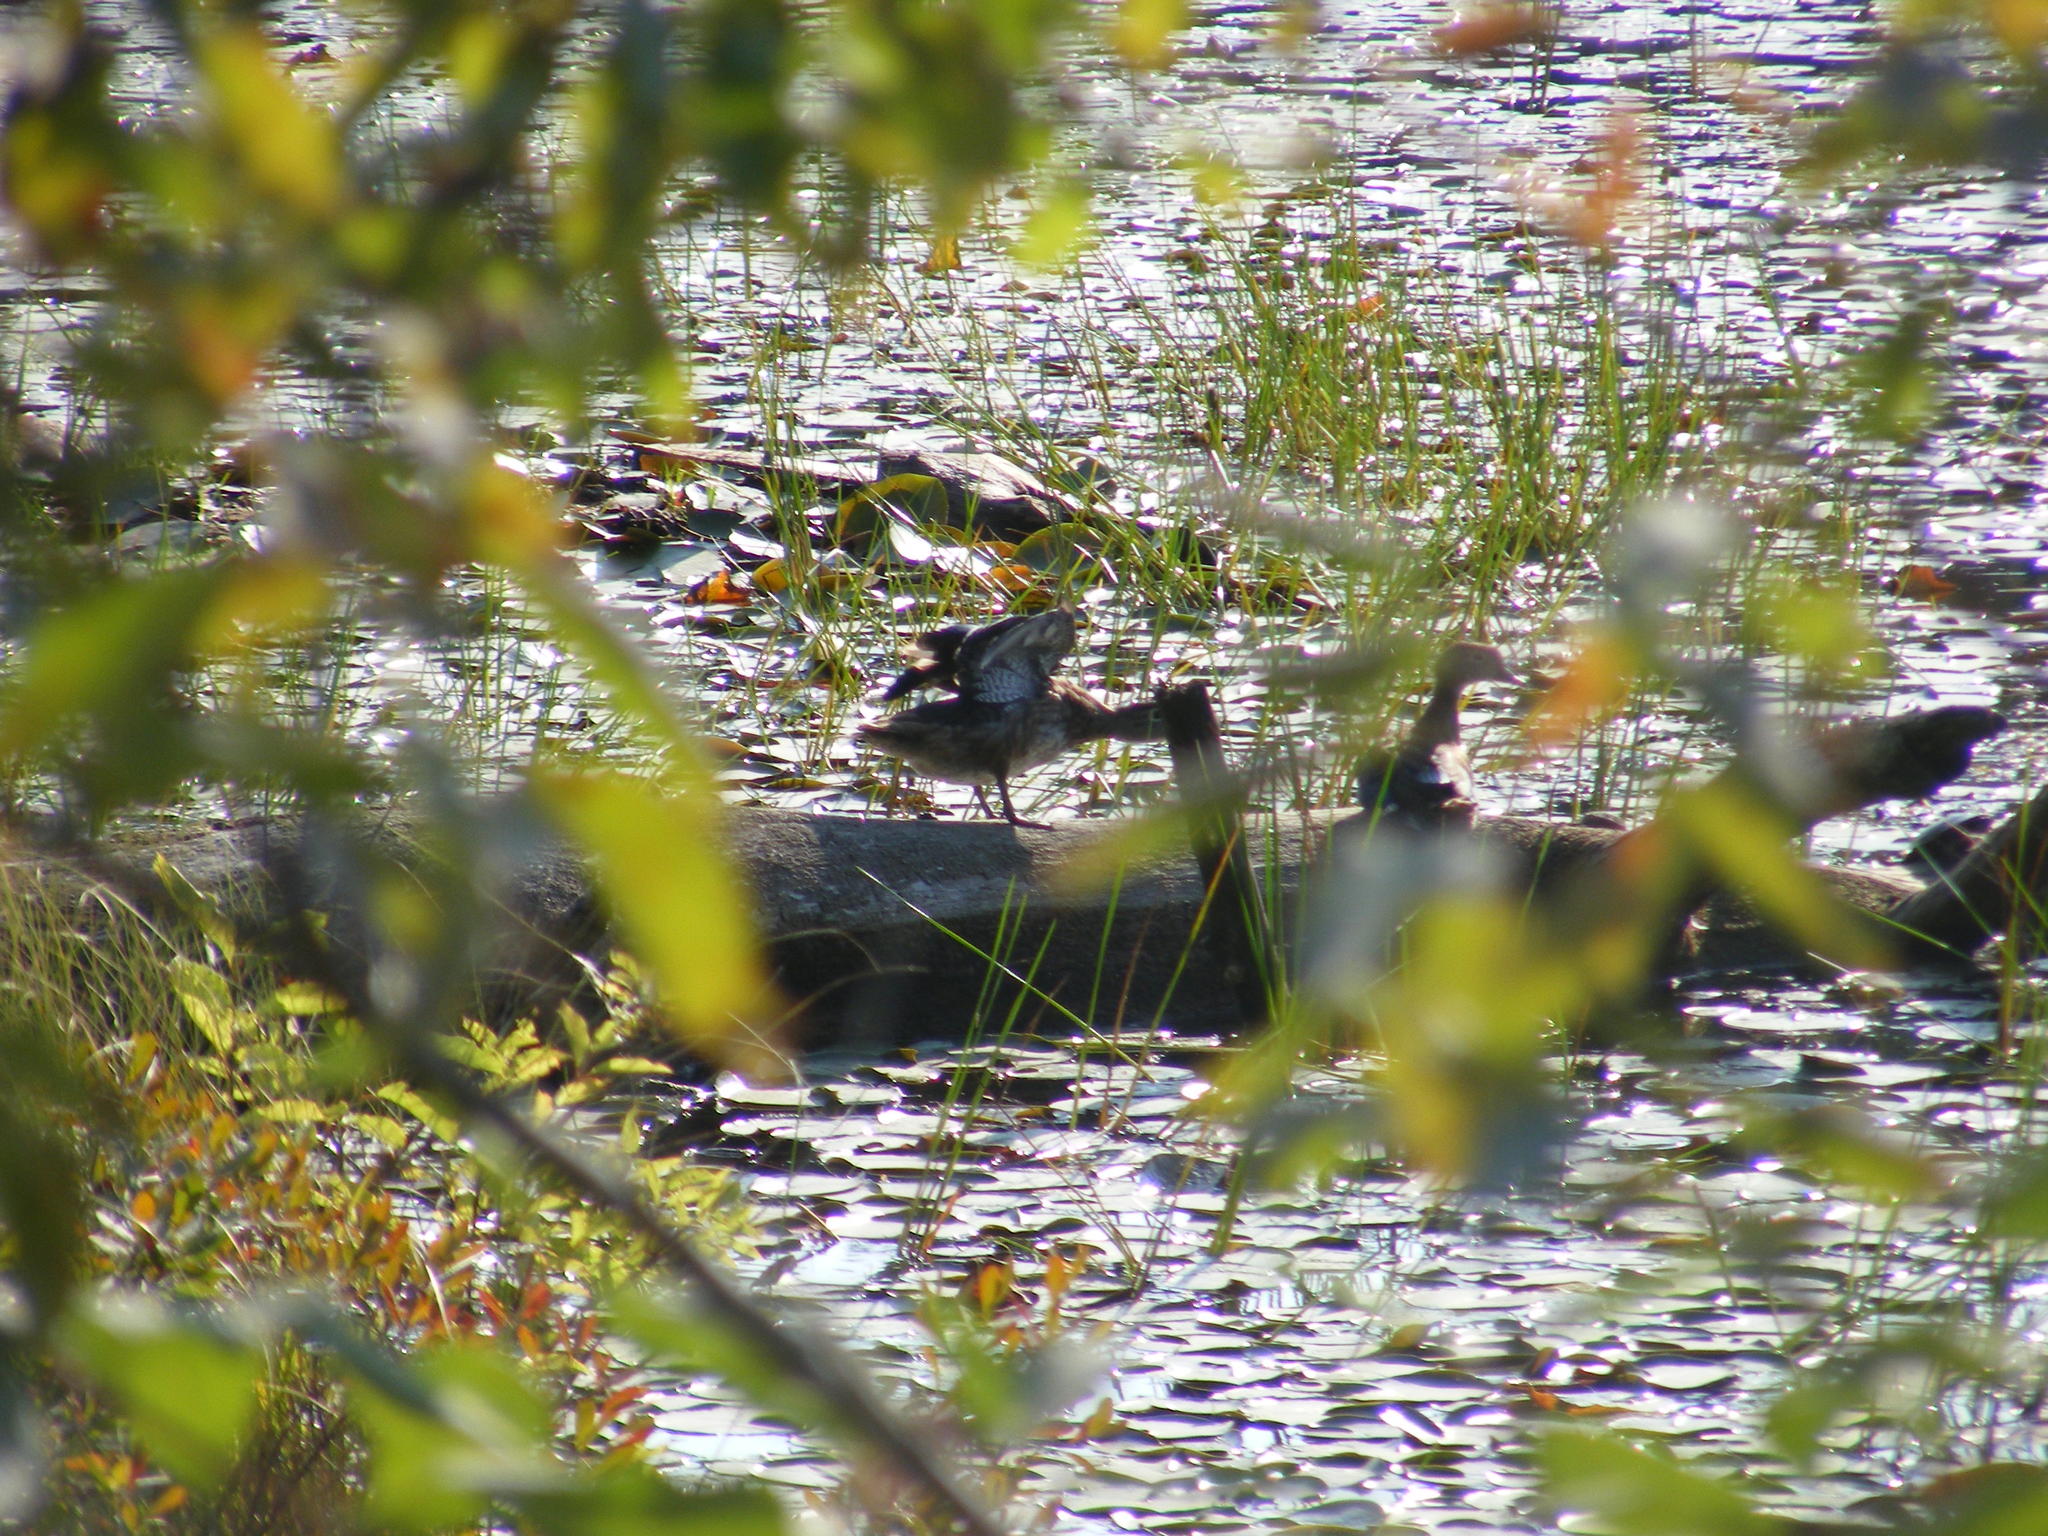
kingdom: Animalia
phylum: Chordata
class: Aves
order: Anseriformes
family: Anatidae
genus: Aix
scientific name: Aix sponsa
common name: Wood duck
